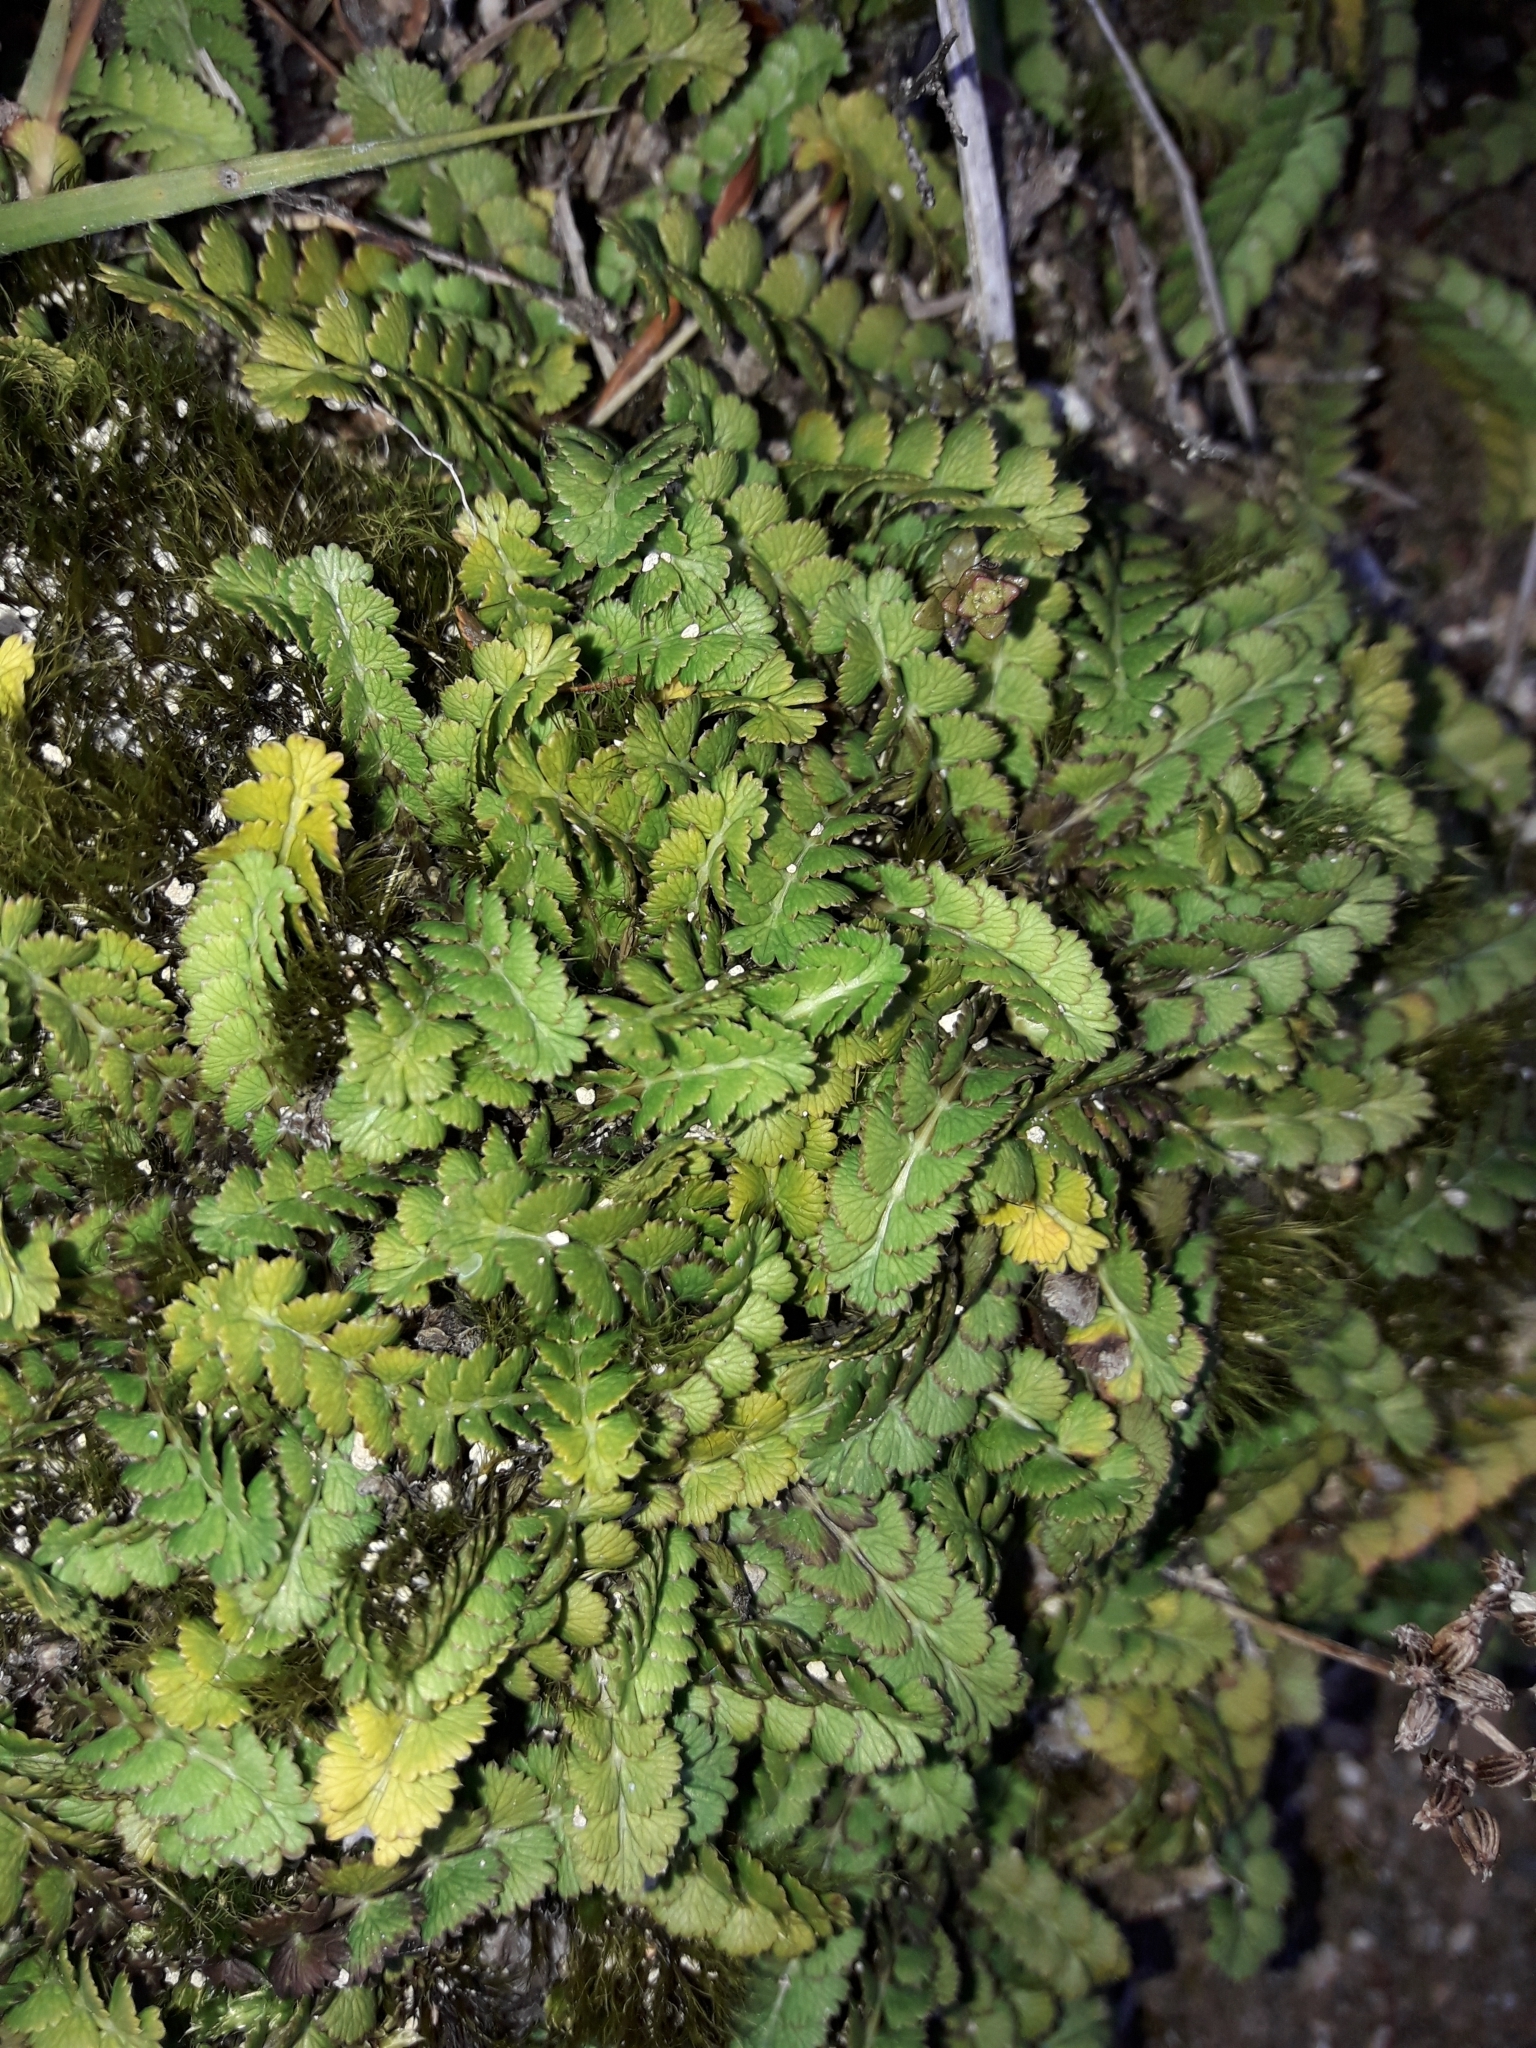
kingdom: Plantae
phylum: Tracheophyta
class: Magnoliopsida
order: Apiales
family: Apiaceae
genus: Anisotome
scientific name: Anisotome aromatica
